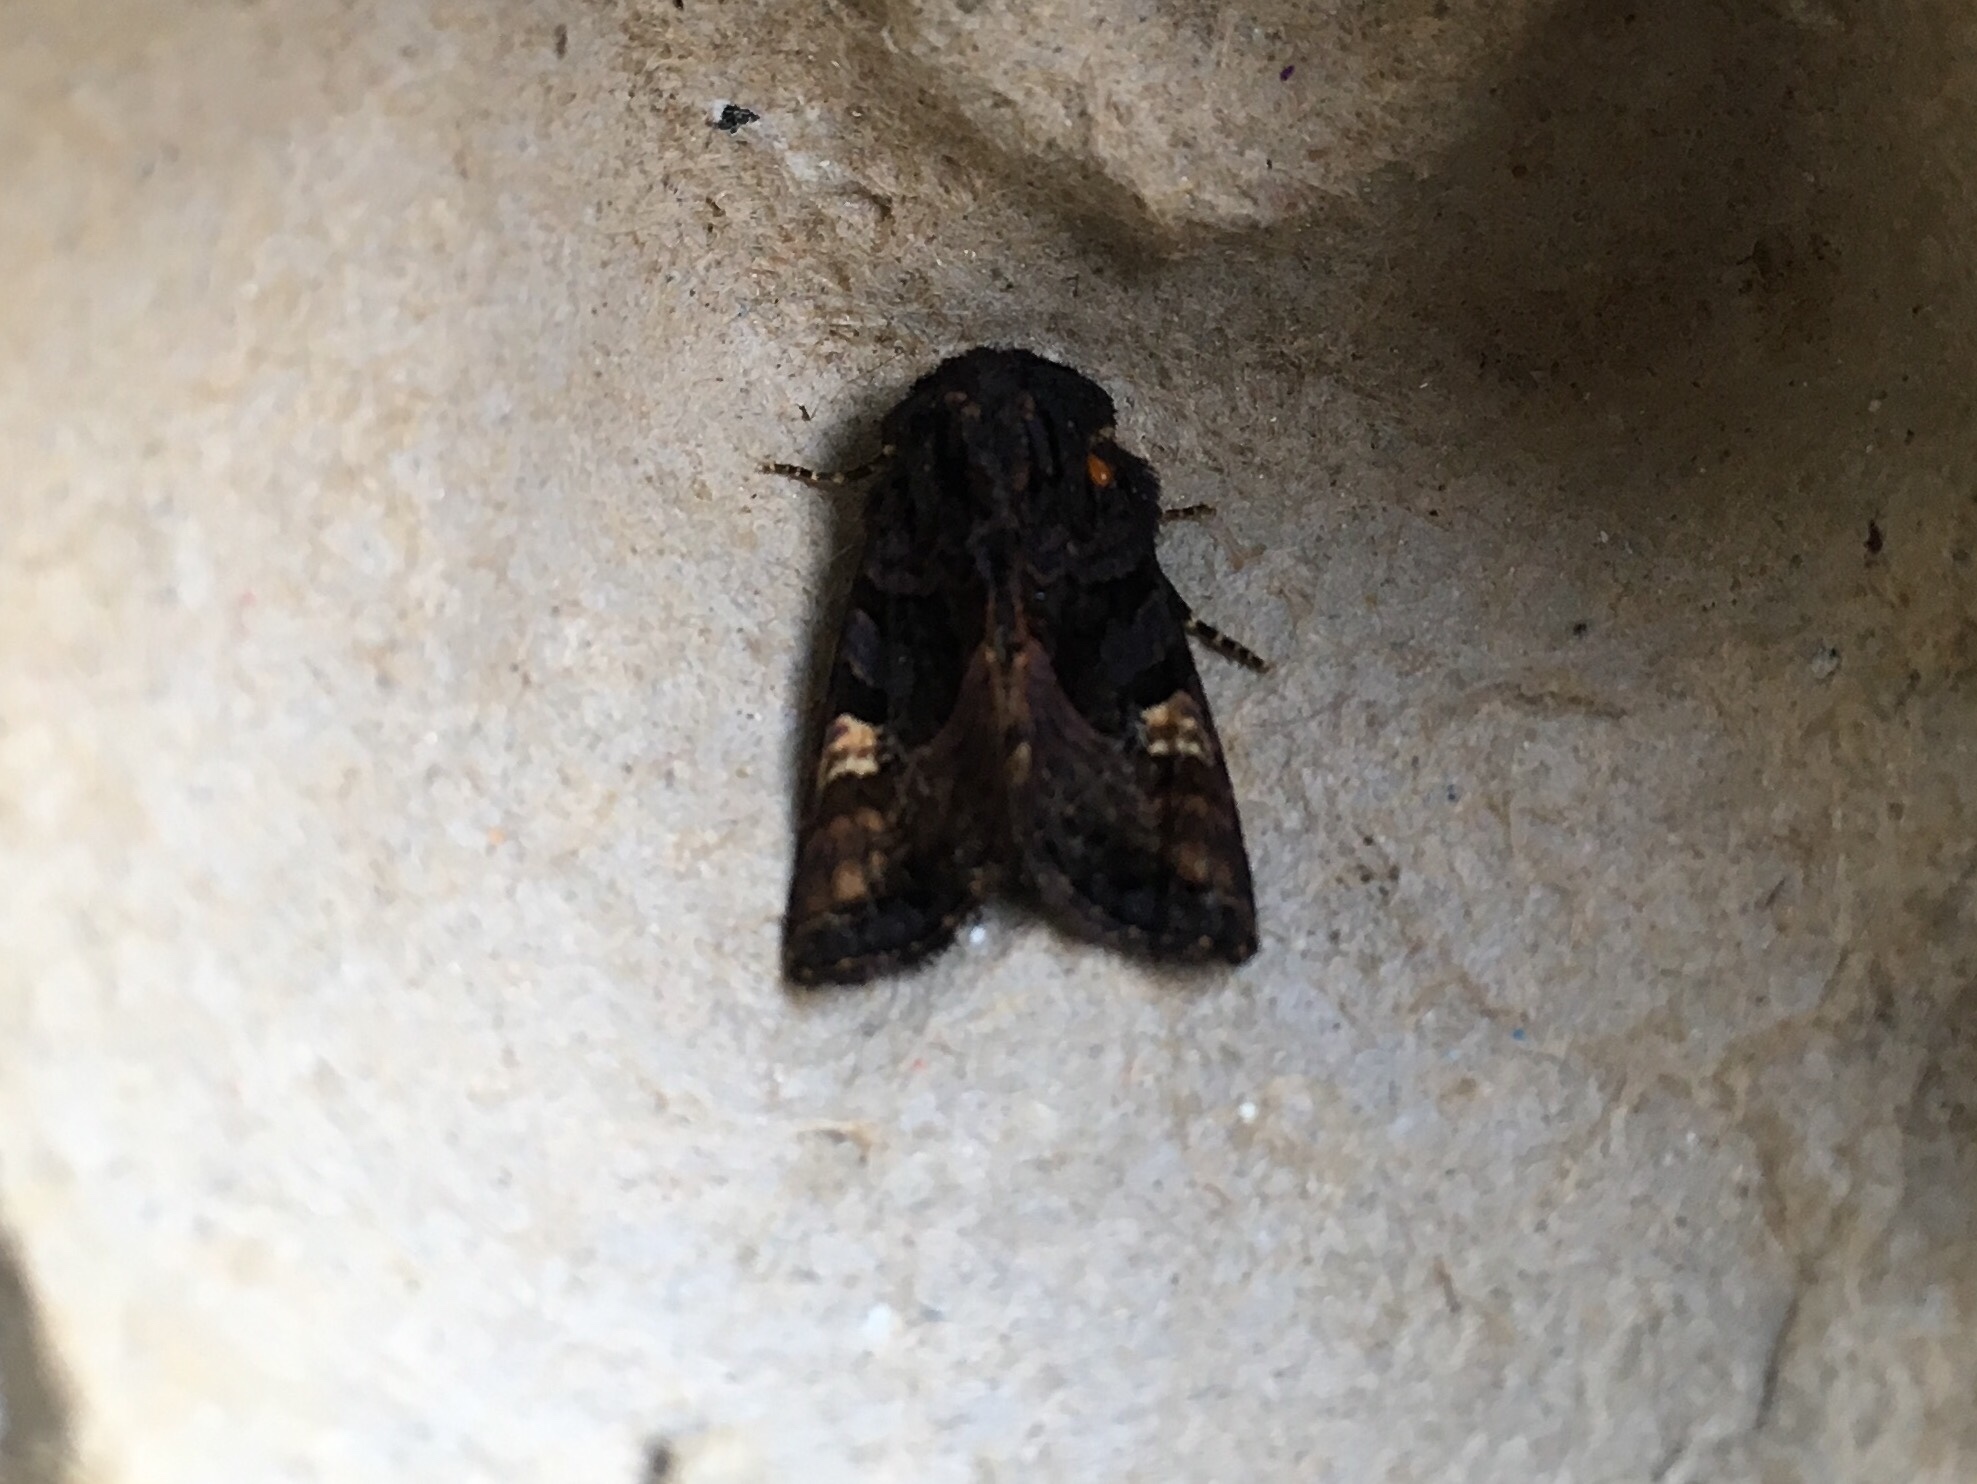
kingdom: Animalia
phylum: Arthropoda
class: Insecta
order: Lepidoptera
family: Noctuidae
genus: Euplexia
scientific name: Euplexia benesimilis
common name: American angle shades
